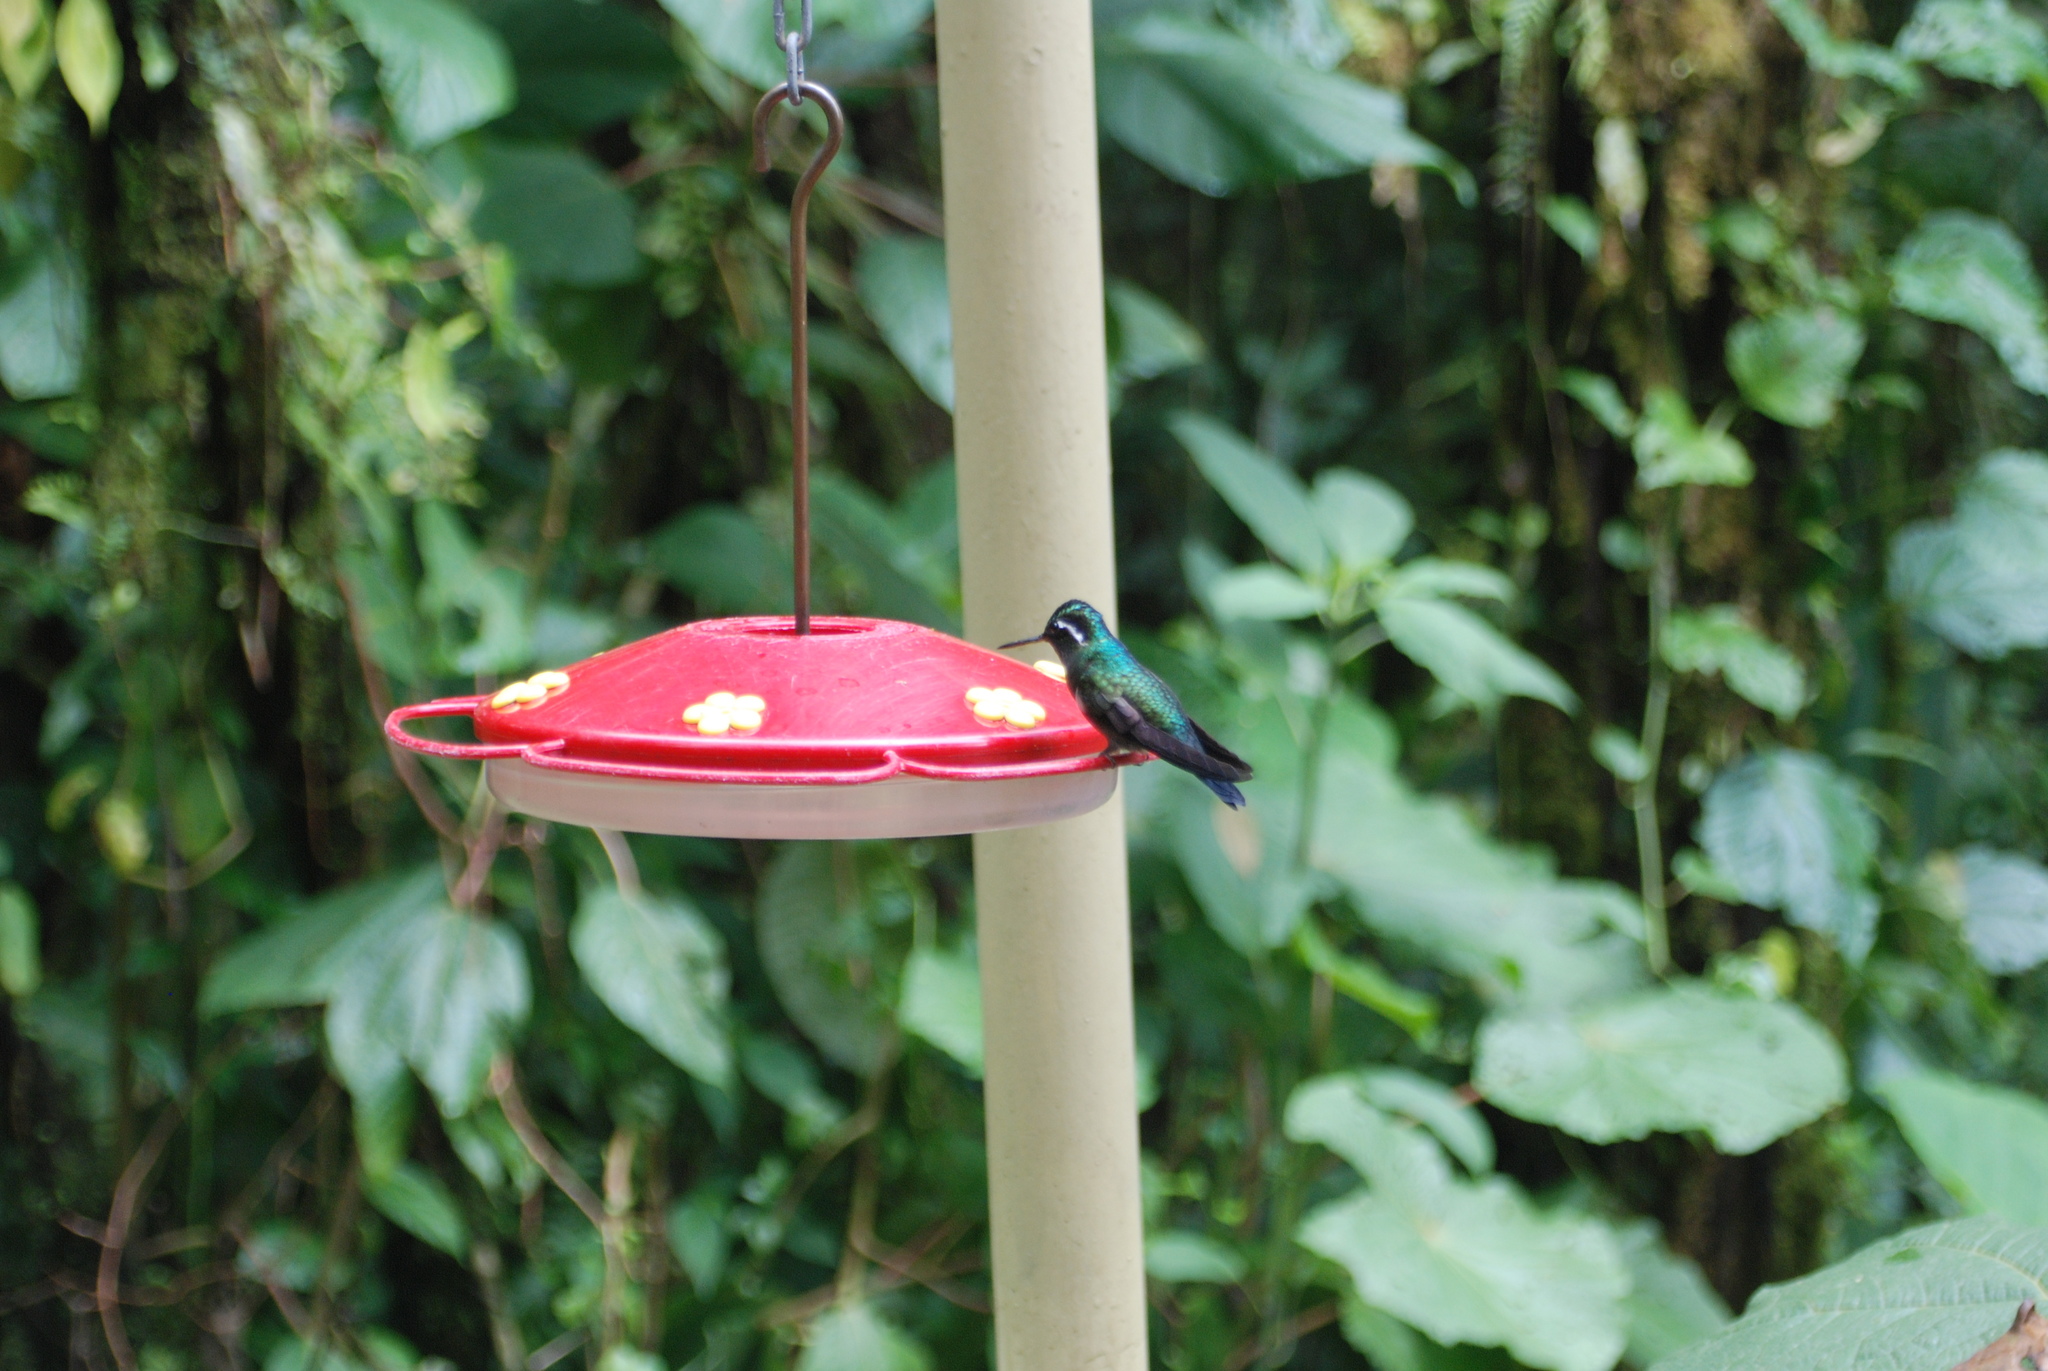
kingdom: Animalia
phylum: Chordata
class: Aves
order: Apodiformes
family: Trochilidae
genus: Lampornis
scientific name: Lampornis calolaemus
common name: Purple-throated mountain-gem
